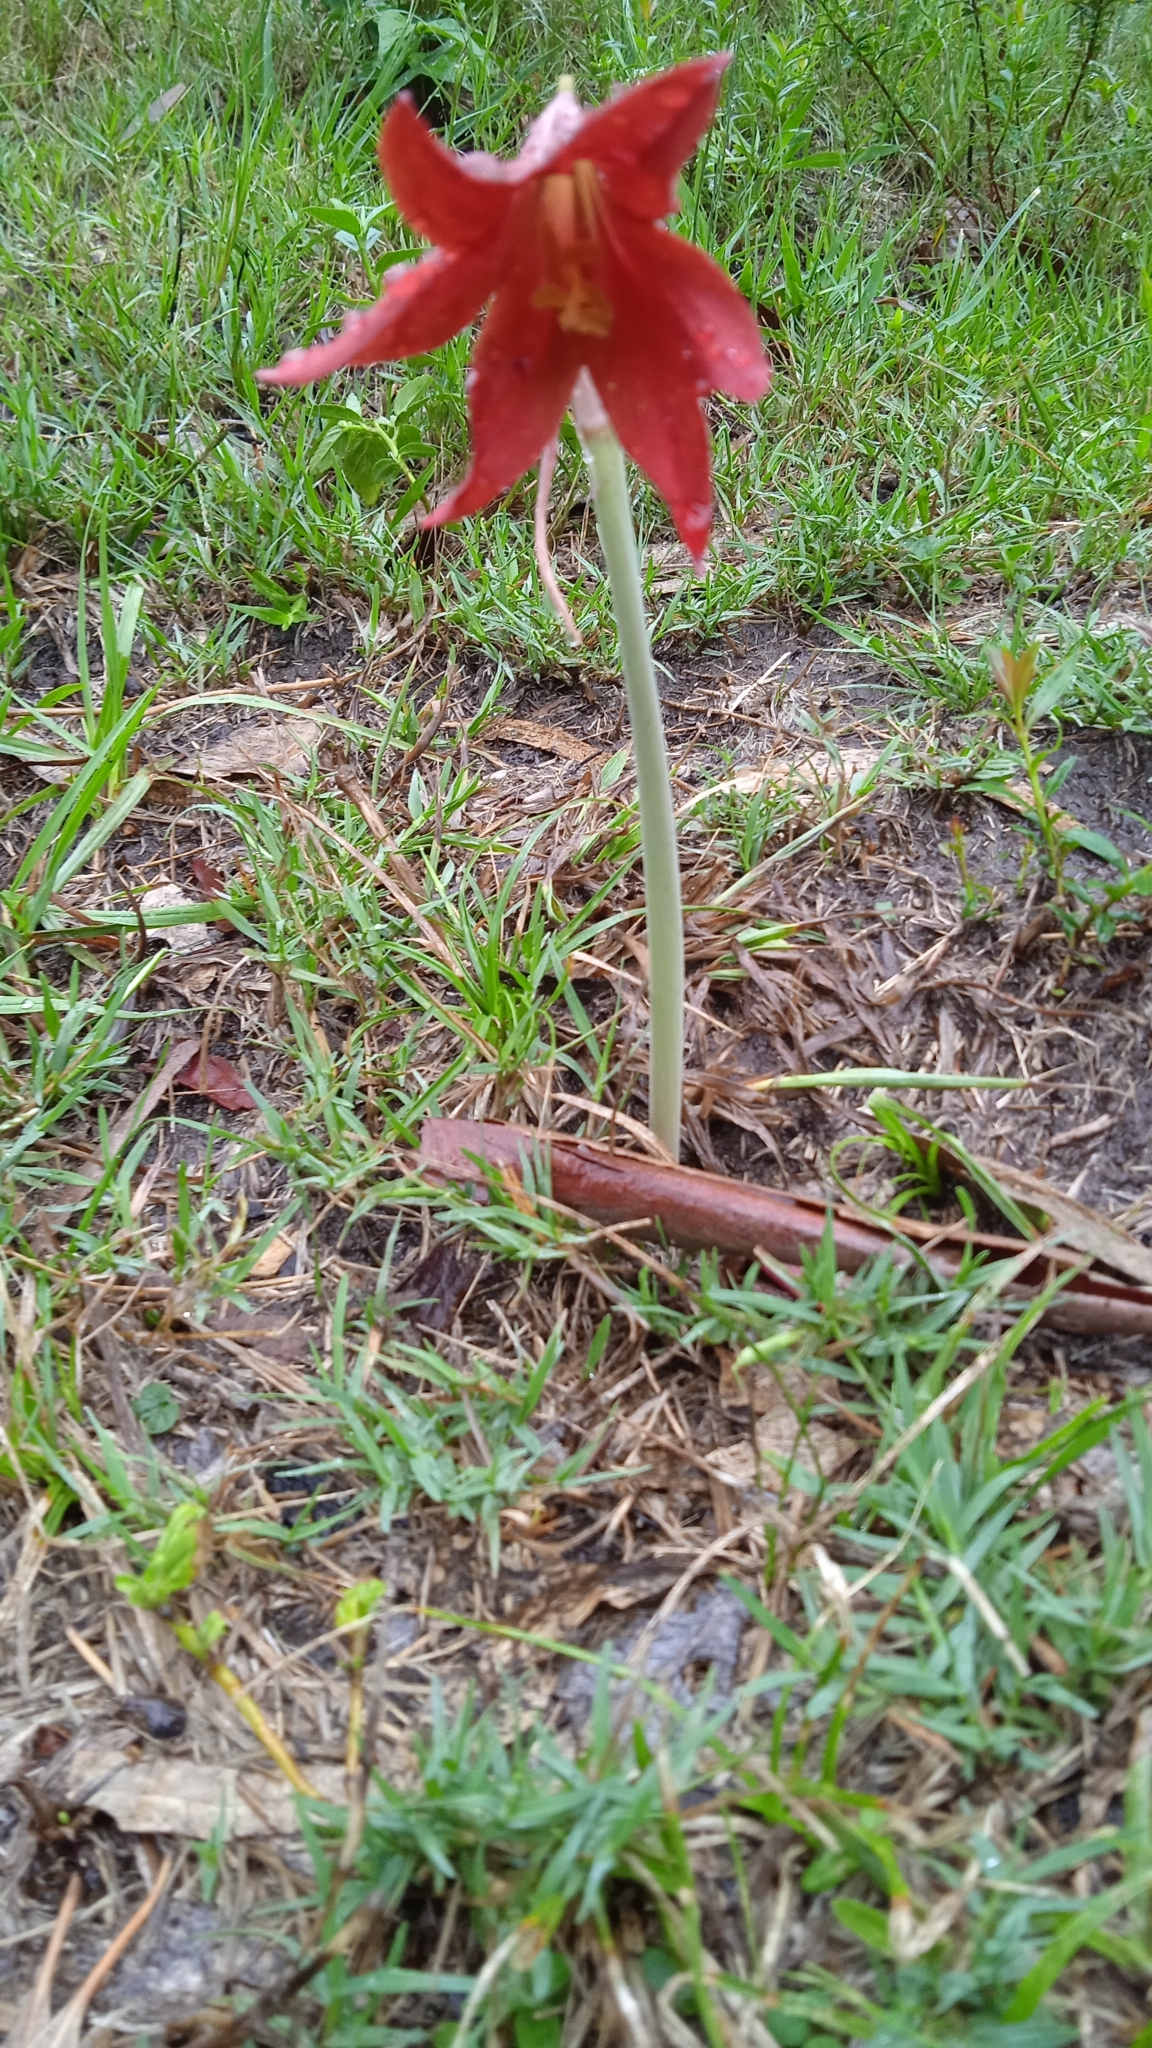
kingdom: Plantae
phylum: Tracheophyta
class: Liliopsida
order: Asparagales
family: Amaryllidaceae
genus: Zephyranthes
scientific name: Zephyranthes bifida
